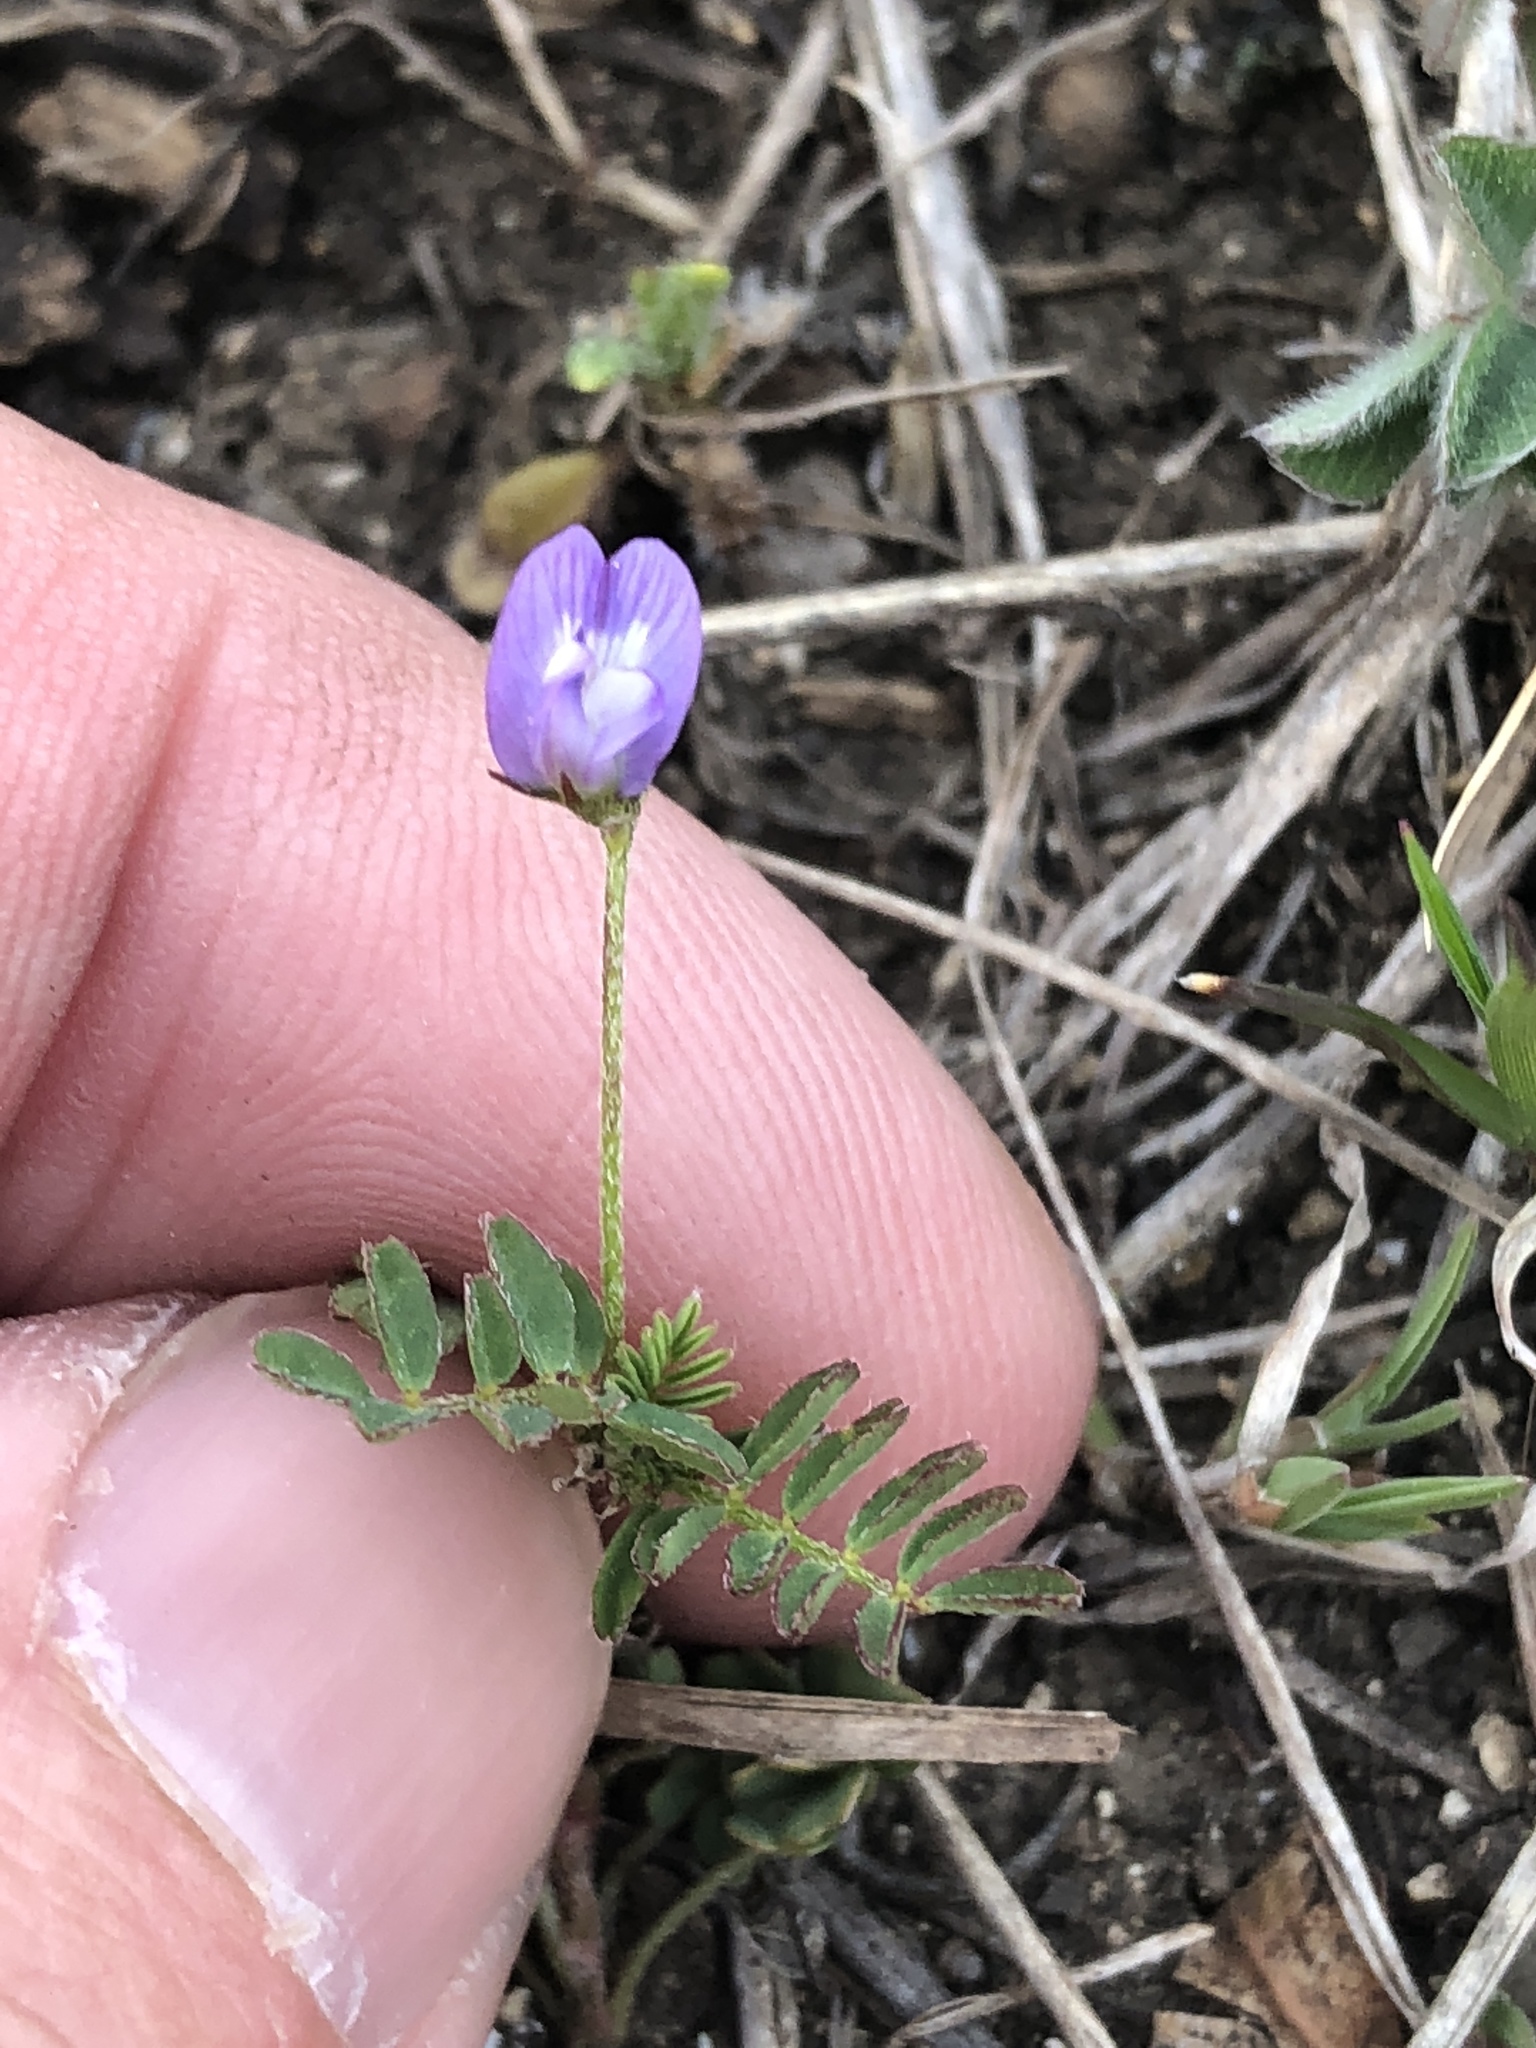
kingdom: Plantae
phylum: Tracheophyta
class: Magnoliopsida
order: Fabales
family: Fabaceae
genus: Astragalus
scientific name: Astragalus nuttallianus
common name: Smallflowered milkvetch
